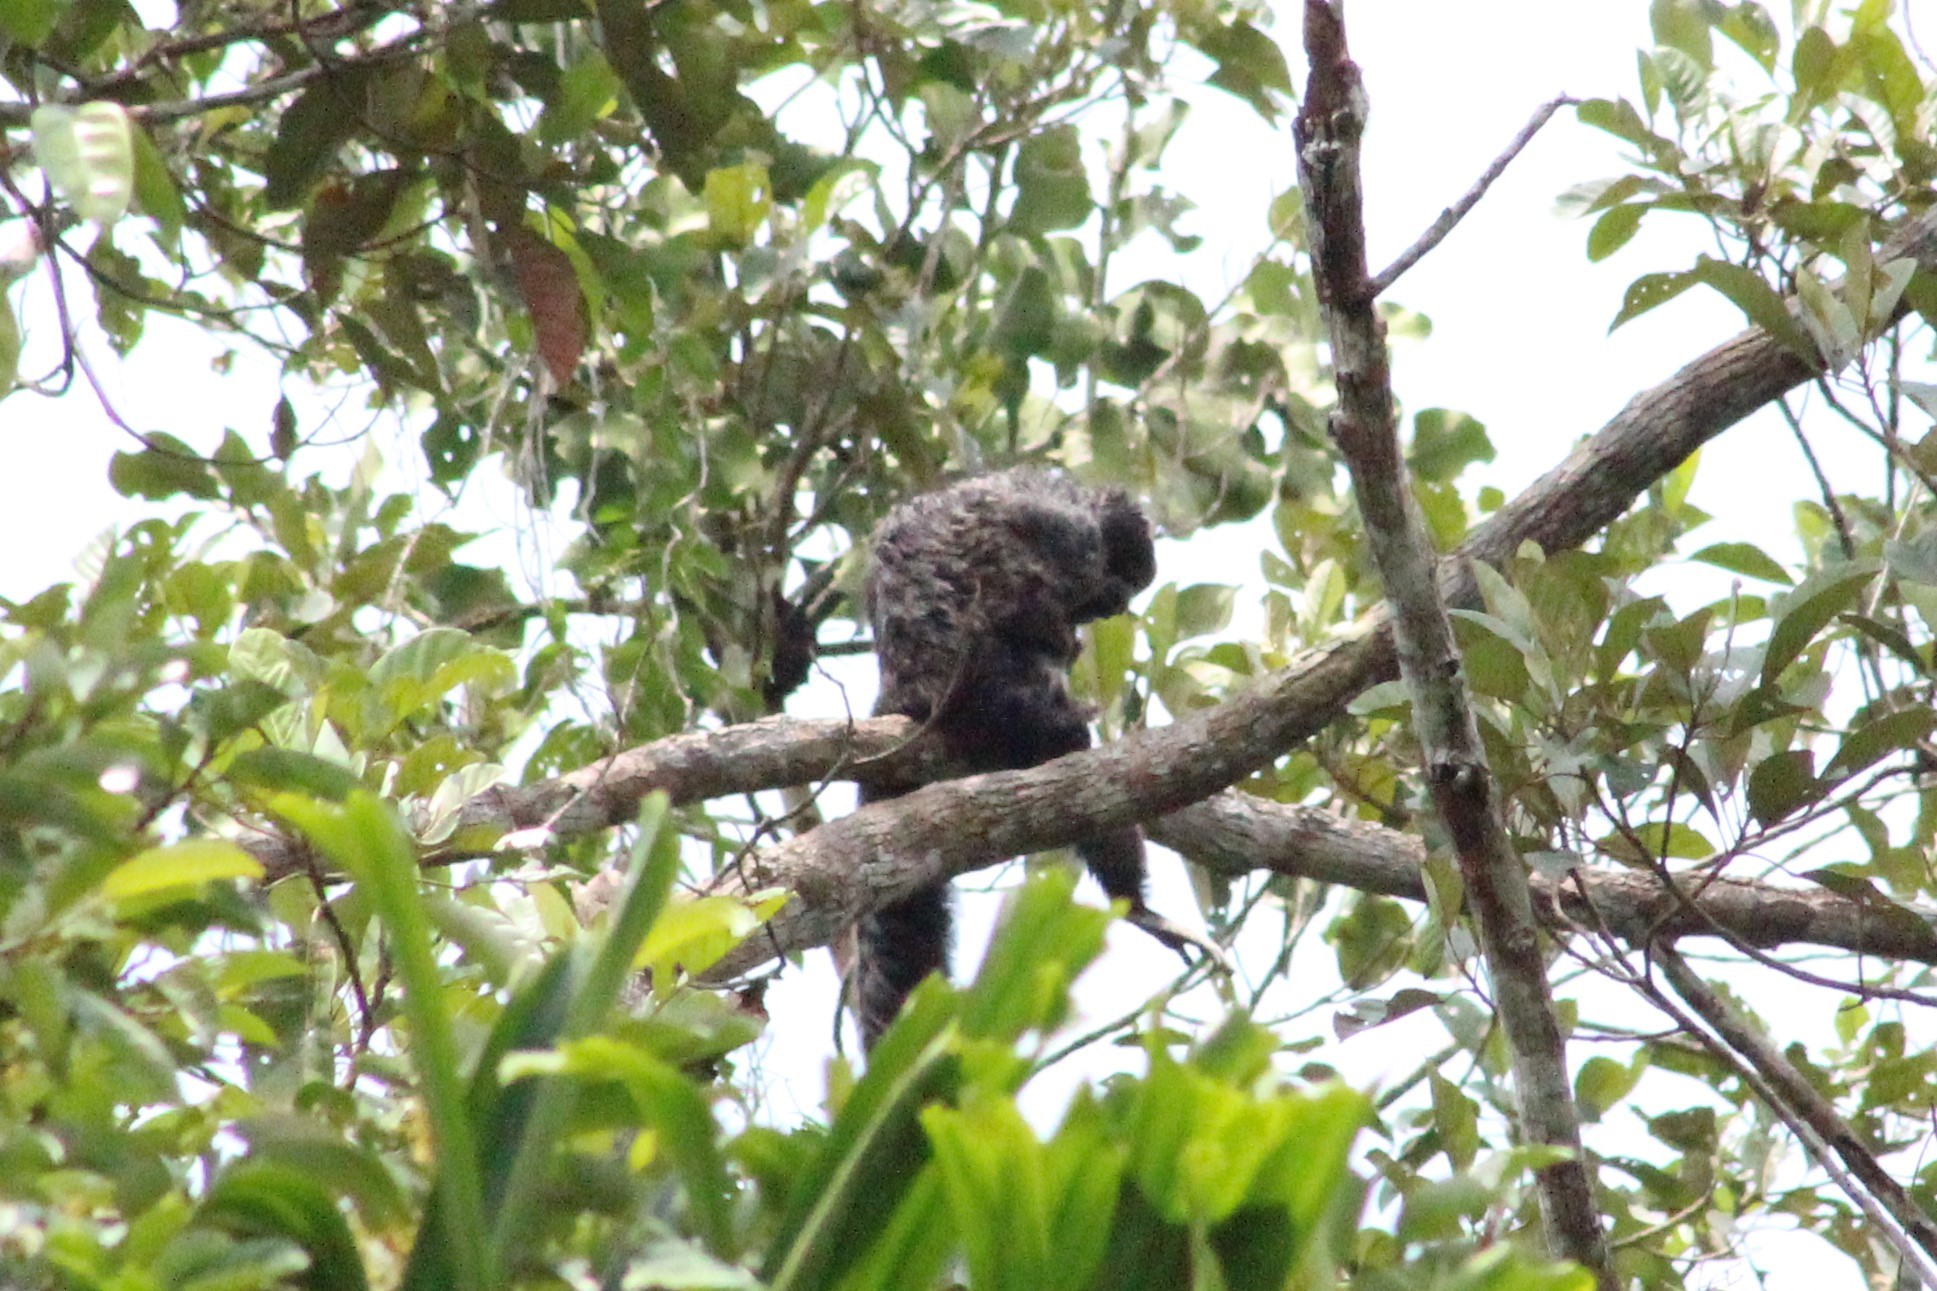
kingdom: Animalia
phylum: Chordata
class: Mammalia
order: Primates
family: Pitheciidae
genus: Pithecia
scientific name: Pithecia milleri
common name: Miller's saki
